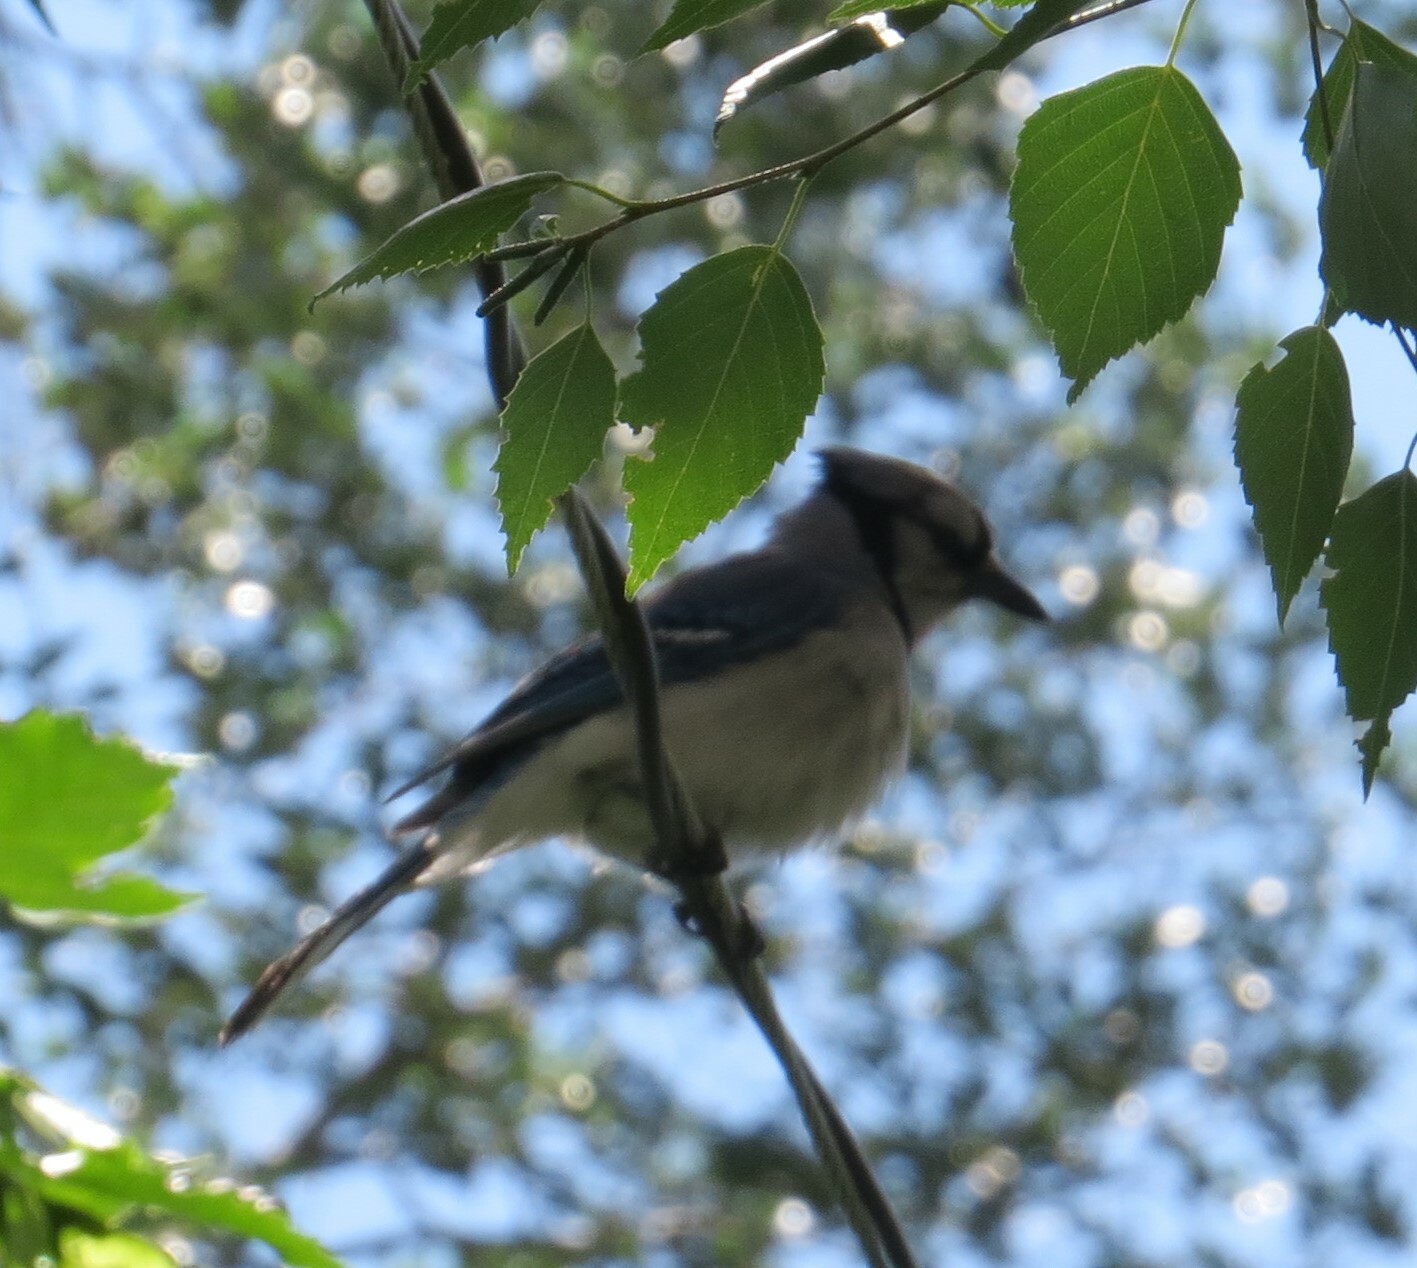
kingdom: Animalia
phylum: Chordata
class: Aves
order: Passeriformes
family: Corvidae
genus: Cyanocitta
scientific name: Cyanocitta cristata
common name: Blue jay
